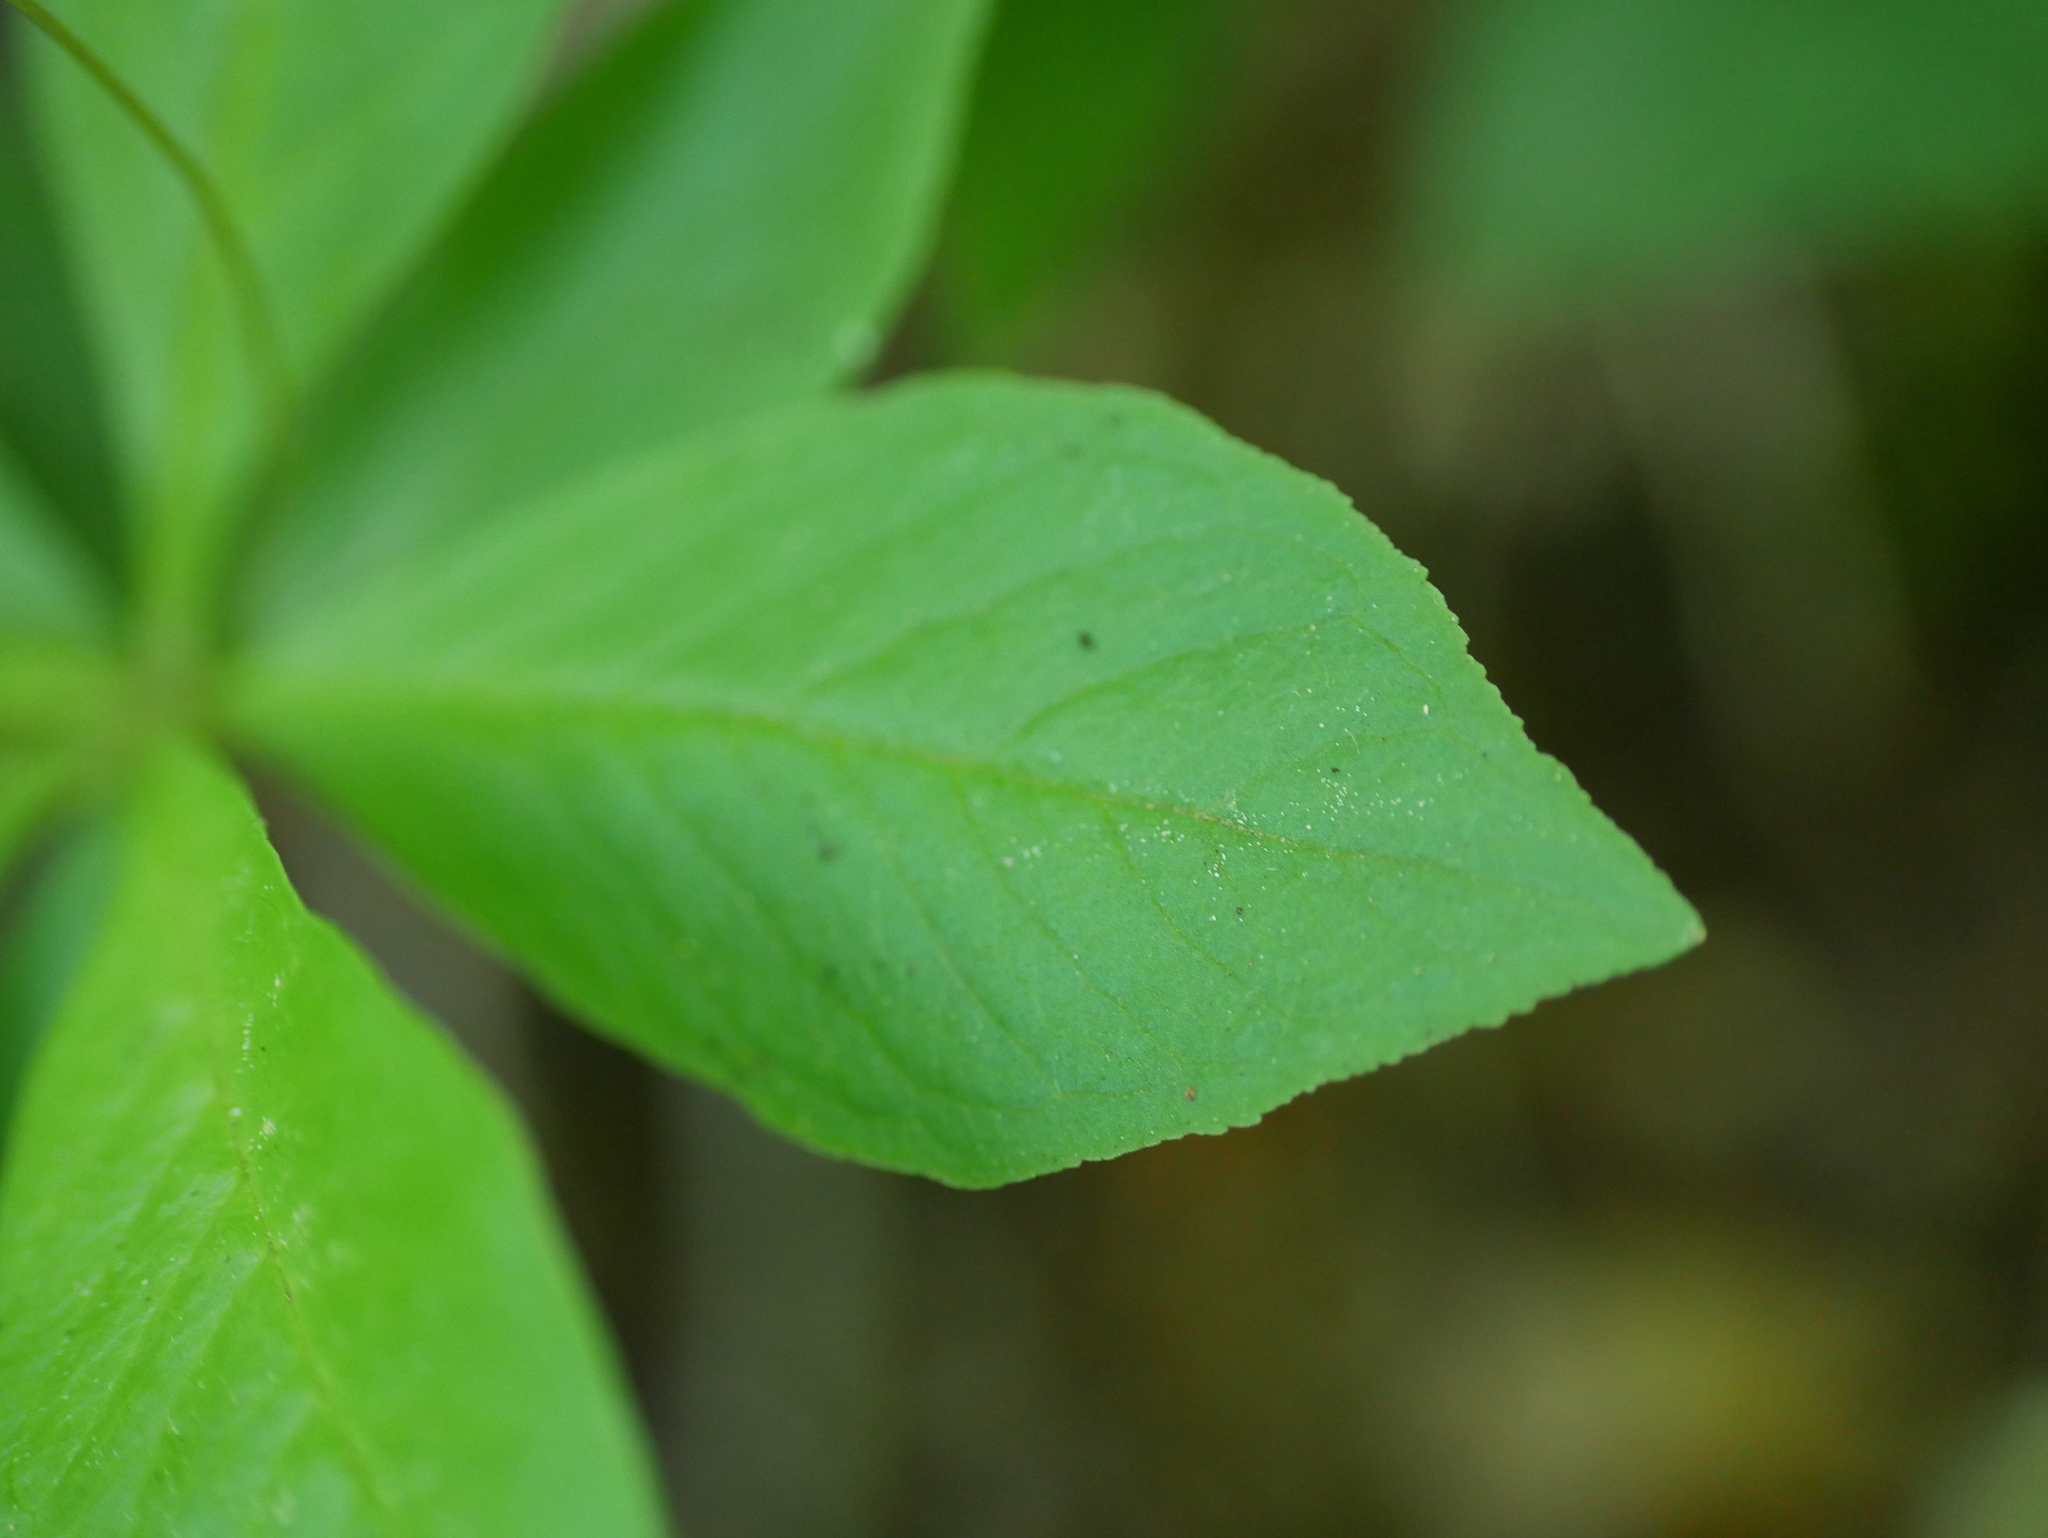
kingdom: Plantae
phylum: Tracheophyta
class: Magnoliopsida
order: Ericales
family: Primulaceae
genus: Lysimachia
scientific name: Lysimachia europaea
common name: Arctic starflower
